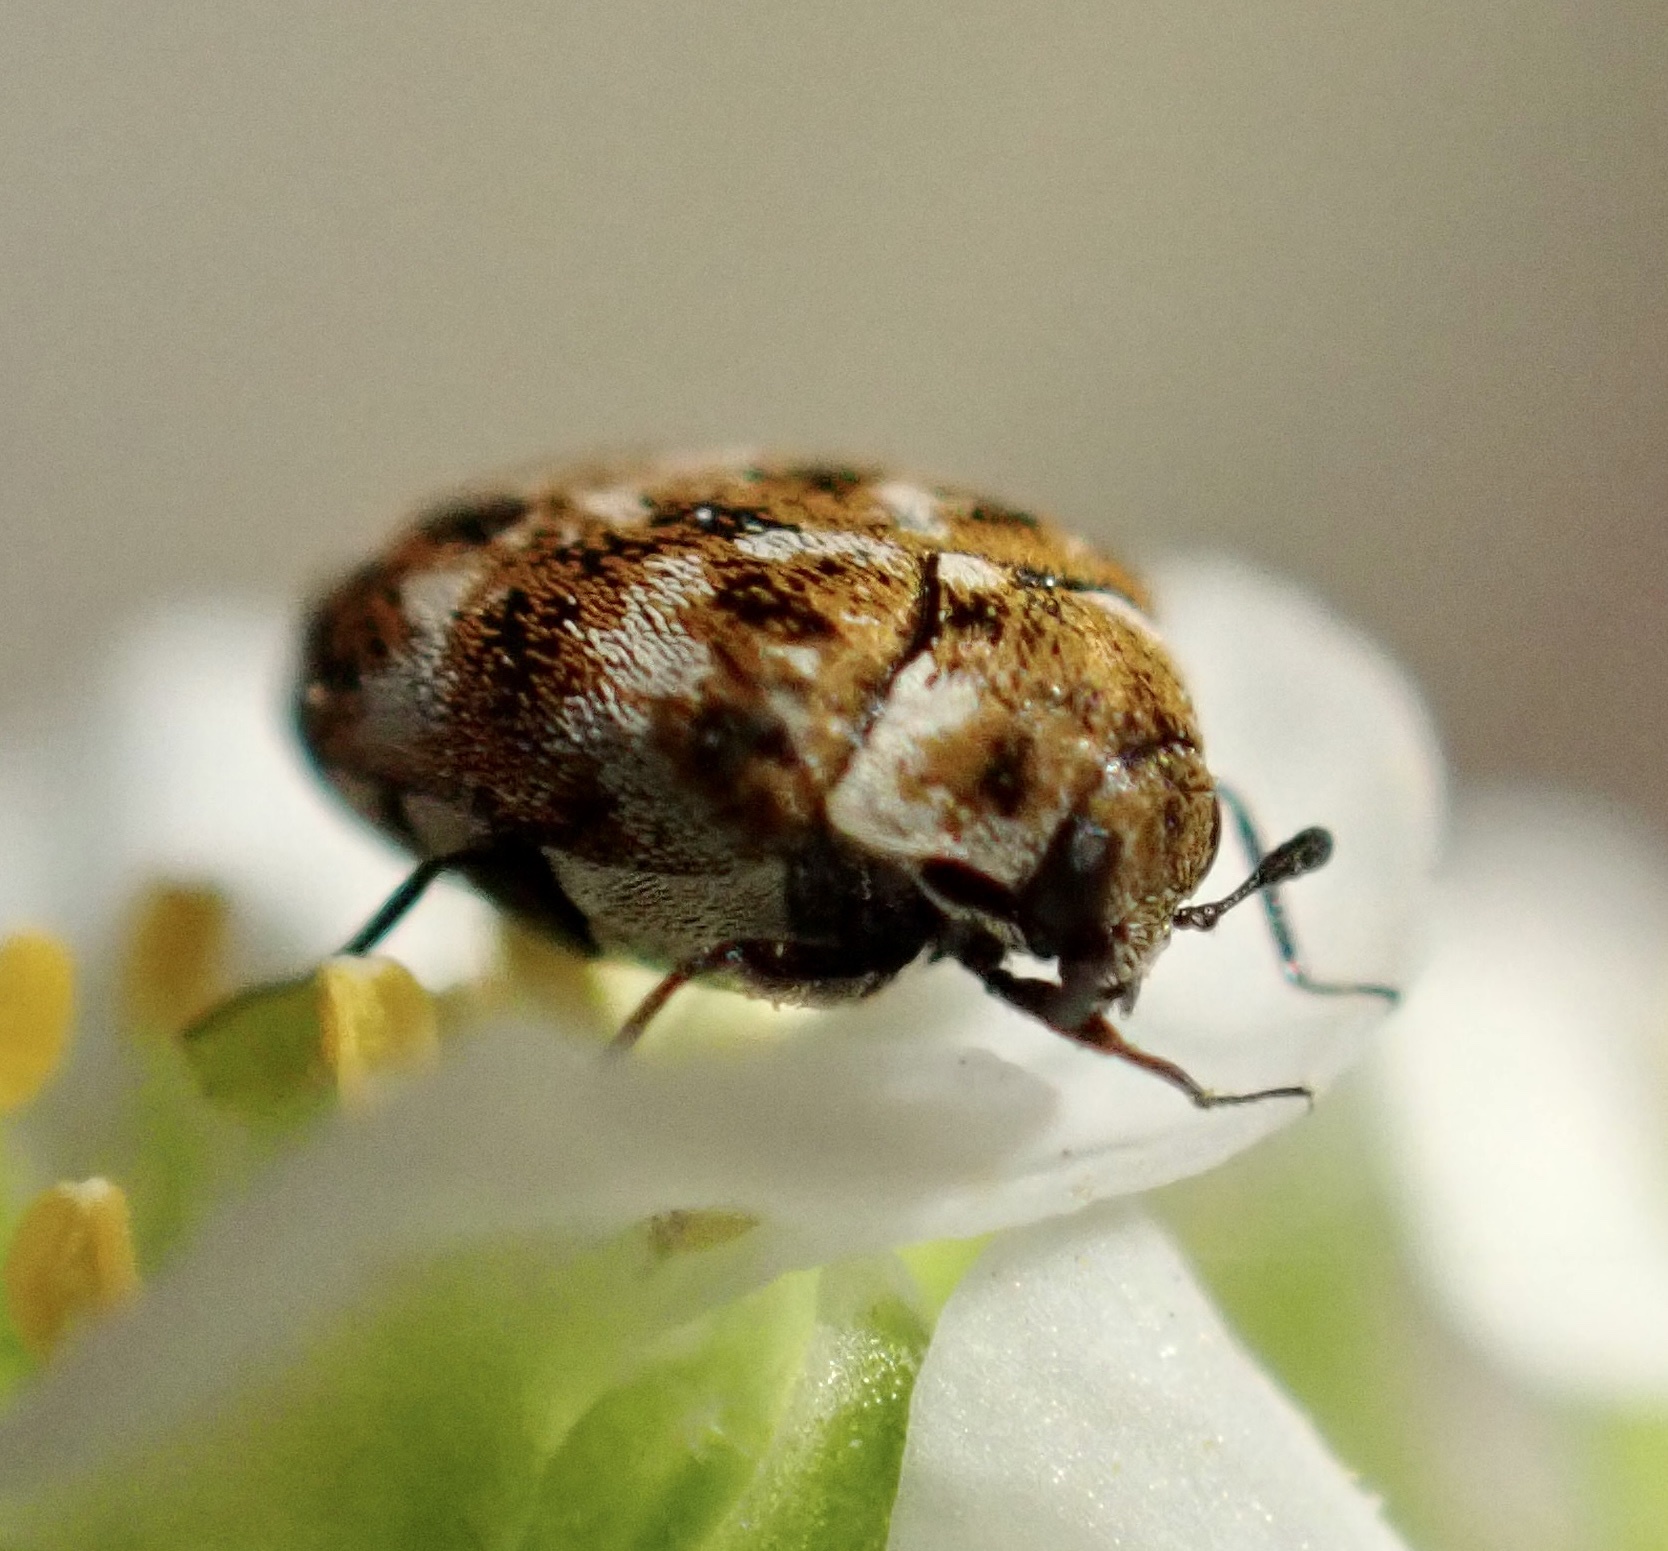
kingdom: Animalia
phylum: Arthropoda
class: Insecta
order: Coleoptera
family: Dermestidae
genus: Anthrenus
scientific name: Anthrenus verbasci
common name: Varied carpet beetle
